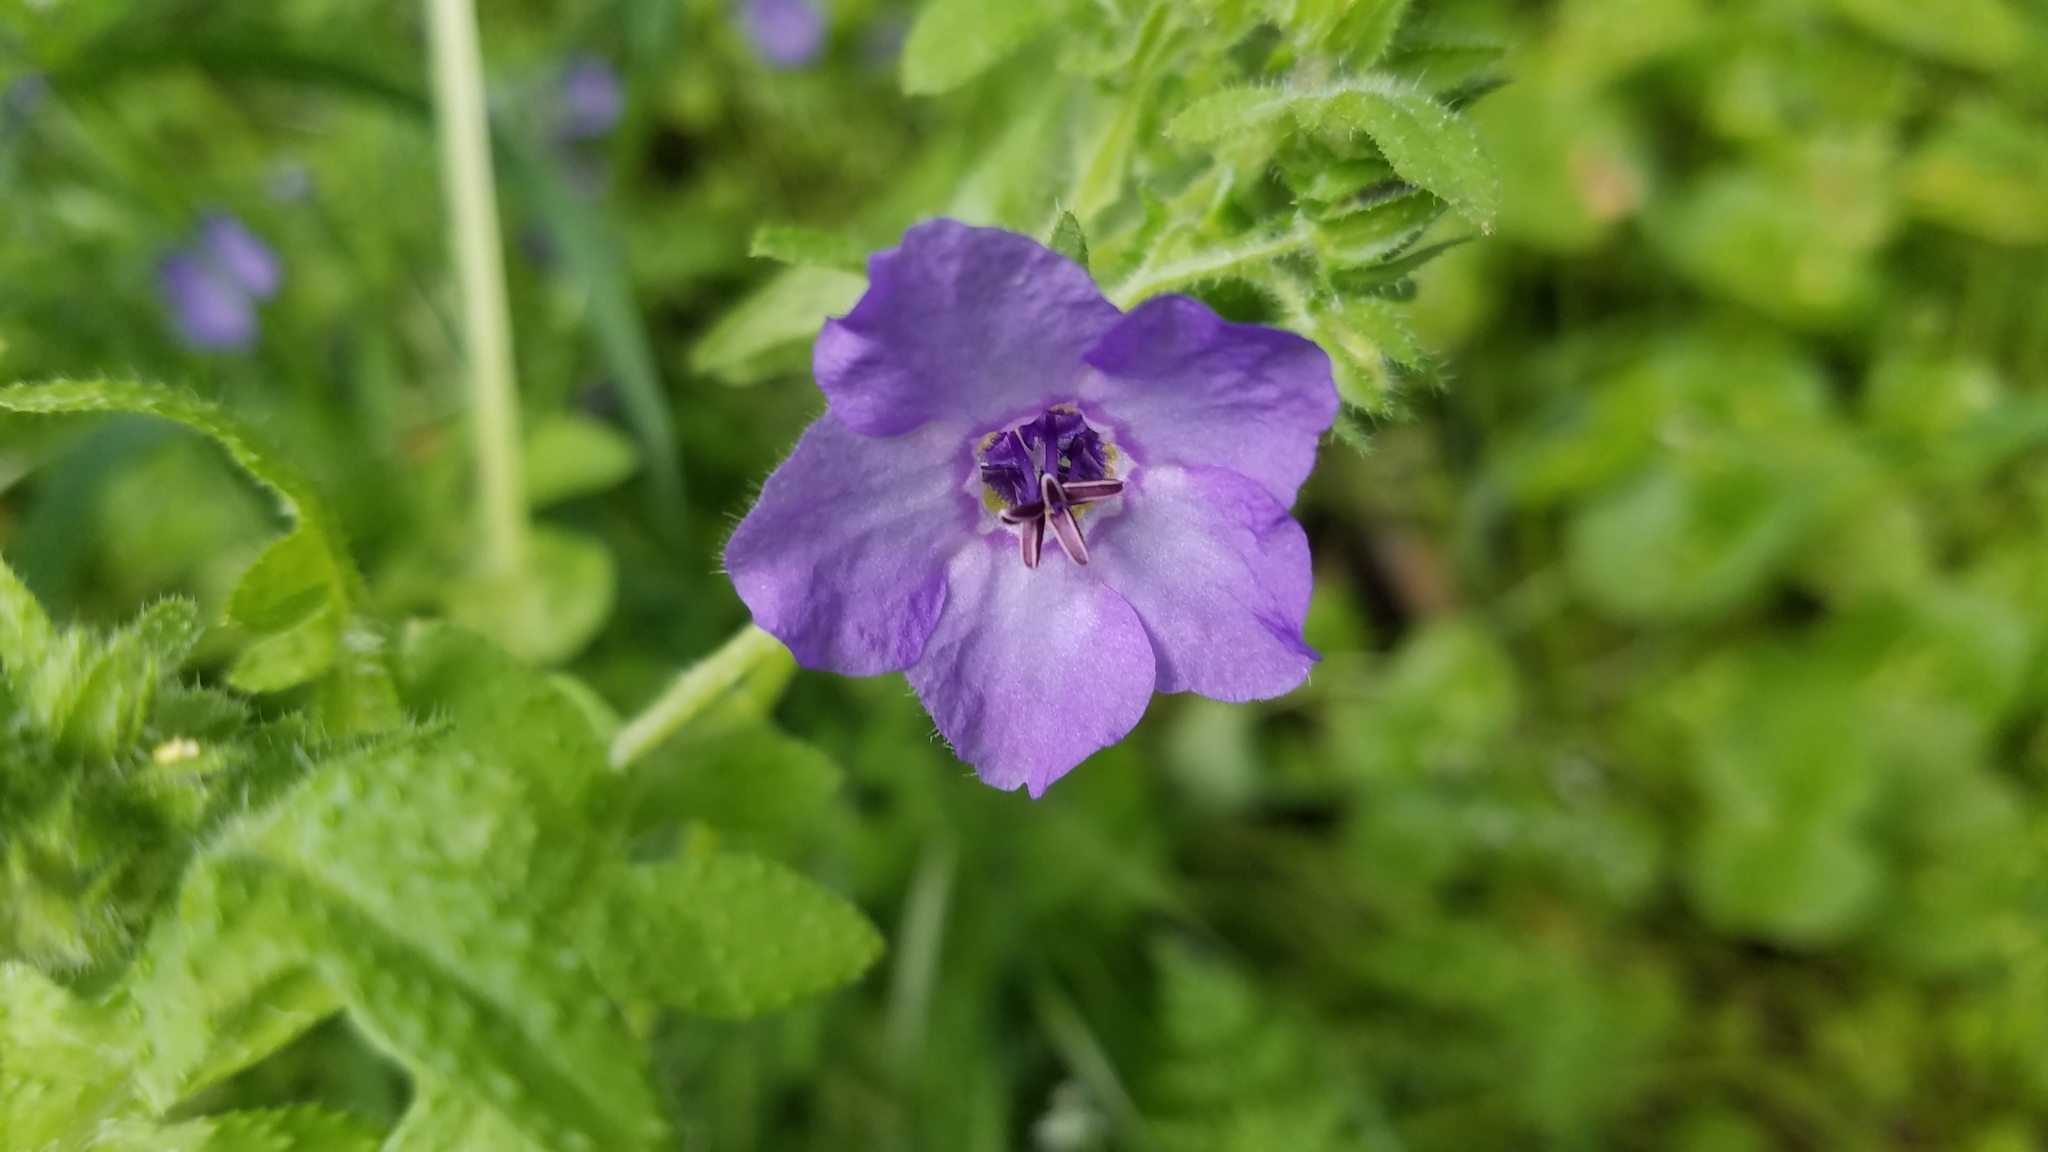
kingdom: Plantae
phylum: Tracheophyta
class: Magnoliopsida
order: Boraginales
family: Hydrophyllaceae
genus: Pholistoma
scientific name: Pholistoma auritum
